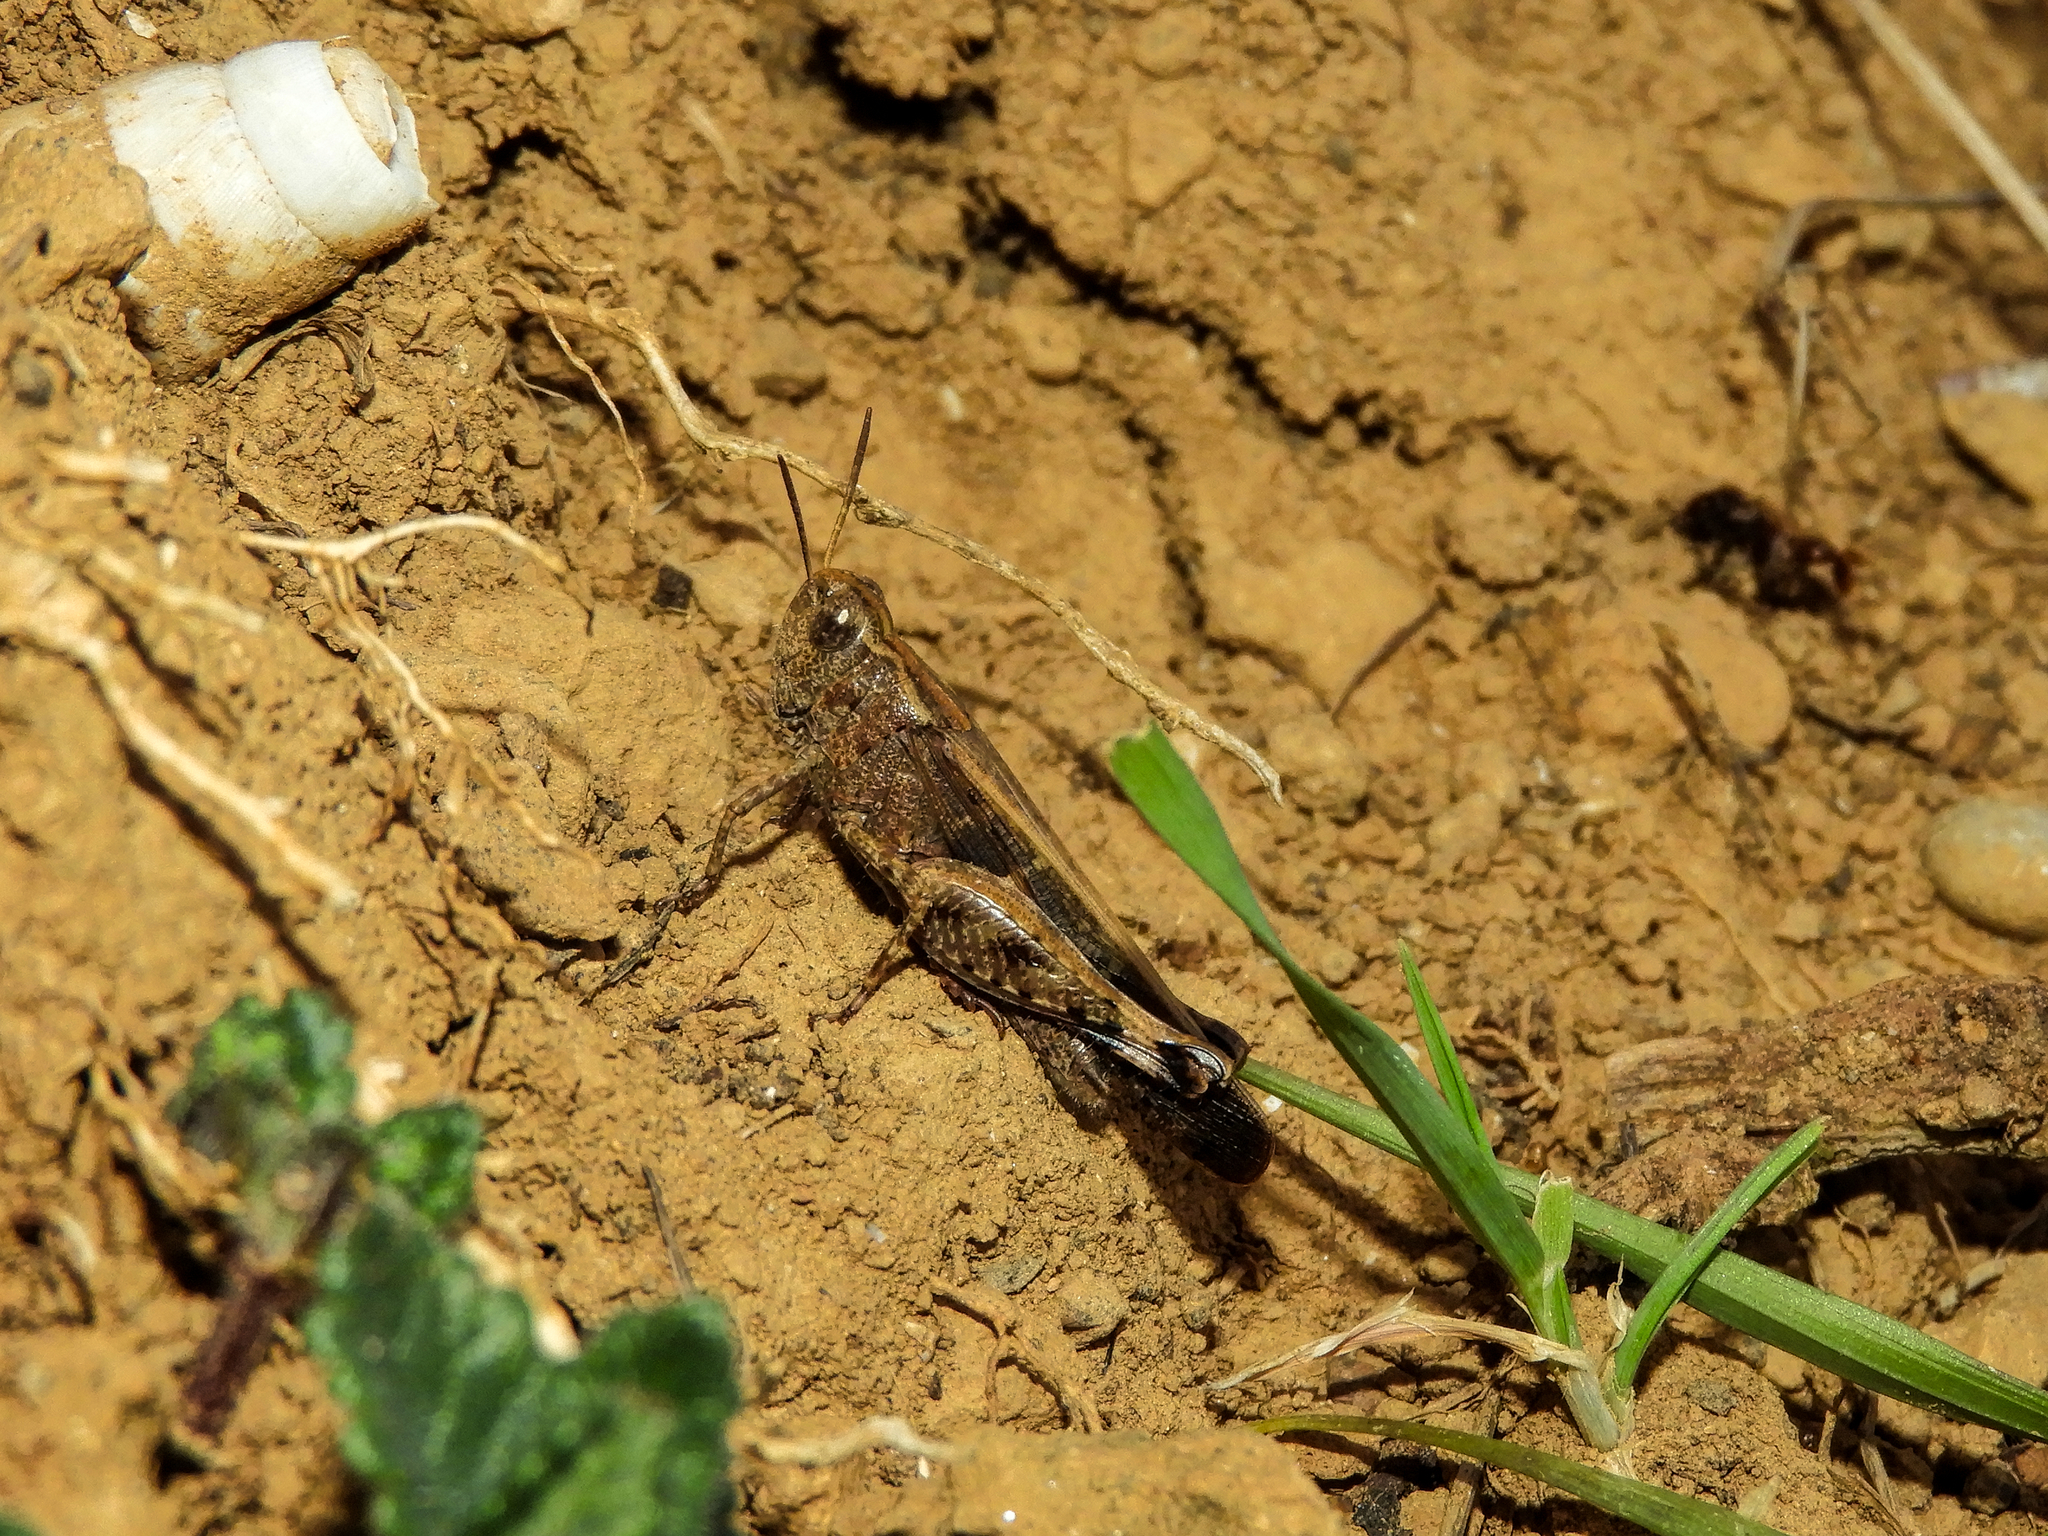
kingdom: Animalia
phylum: Arthropoda
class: Insecta
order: Orthoptera
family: Acrididae
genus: Aiolopus
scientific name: Aiolopus strepens
